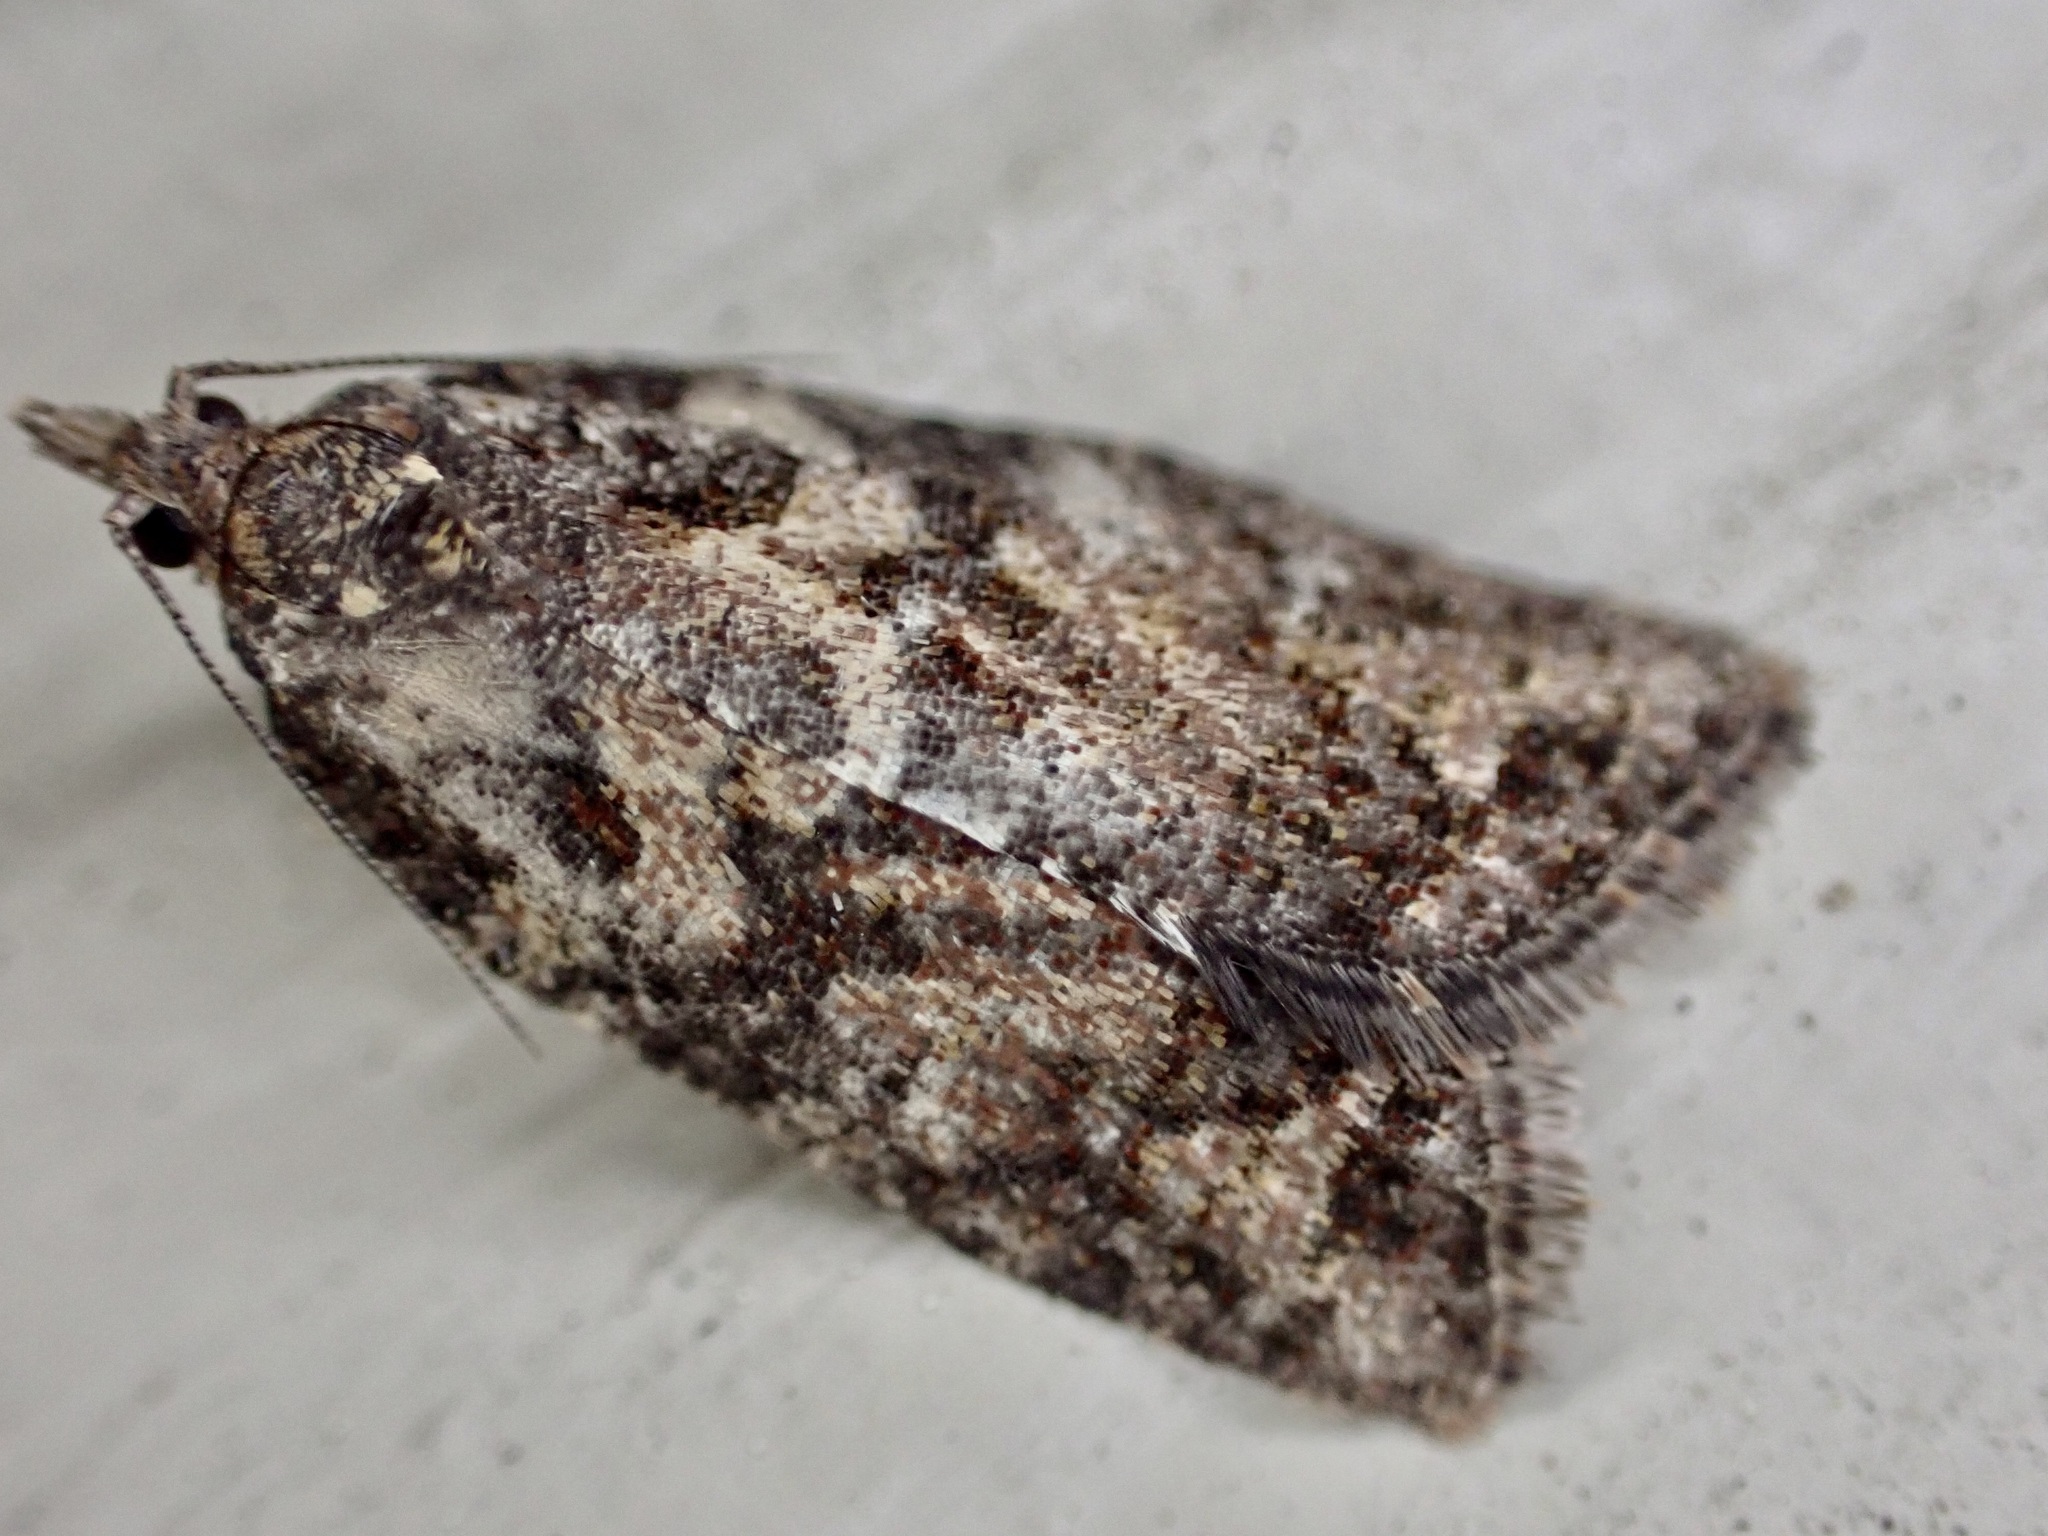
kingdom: Animalia
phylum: Arthropoda
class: Insecta
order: Lepidoptera
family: Tortricidae
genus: Capua
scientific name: Capua intractana
